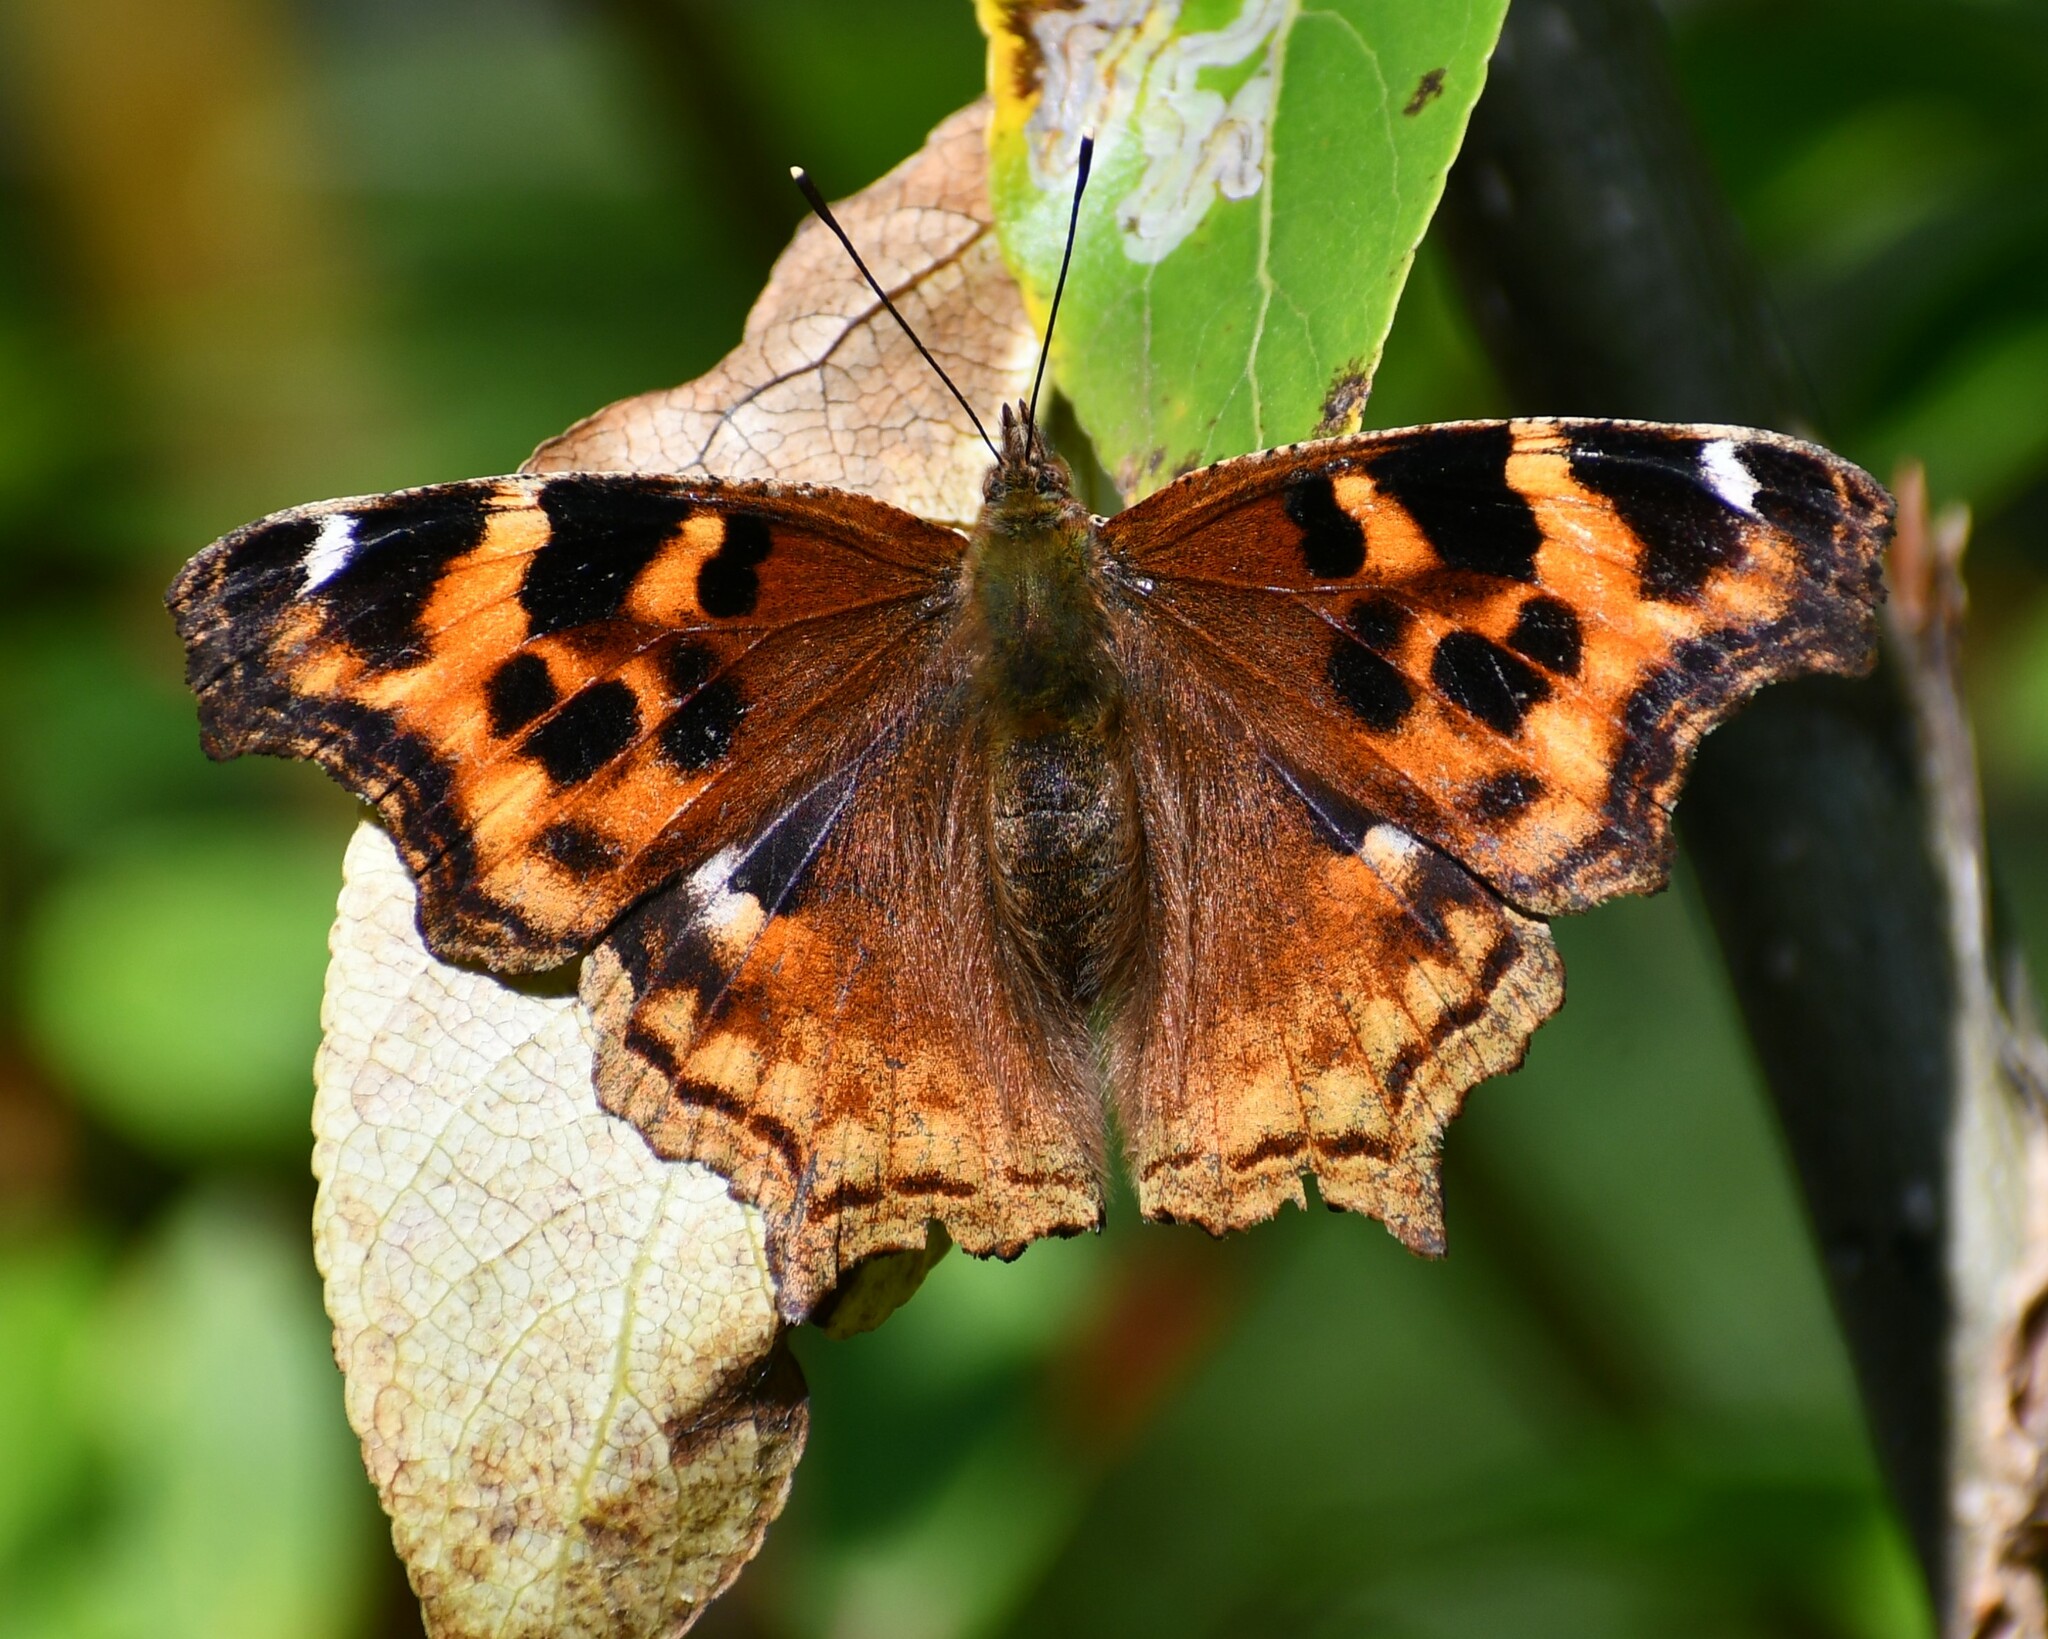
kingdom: Animalia
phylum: Arthropoda
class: Insecta
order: Lepidoptera
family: Nymphalidae
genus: Polygonia
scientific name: Polygonia vaualbum
